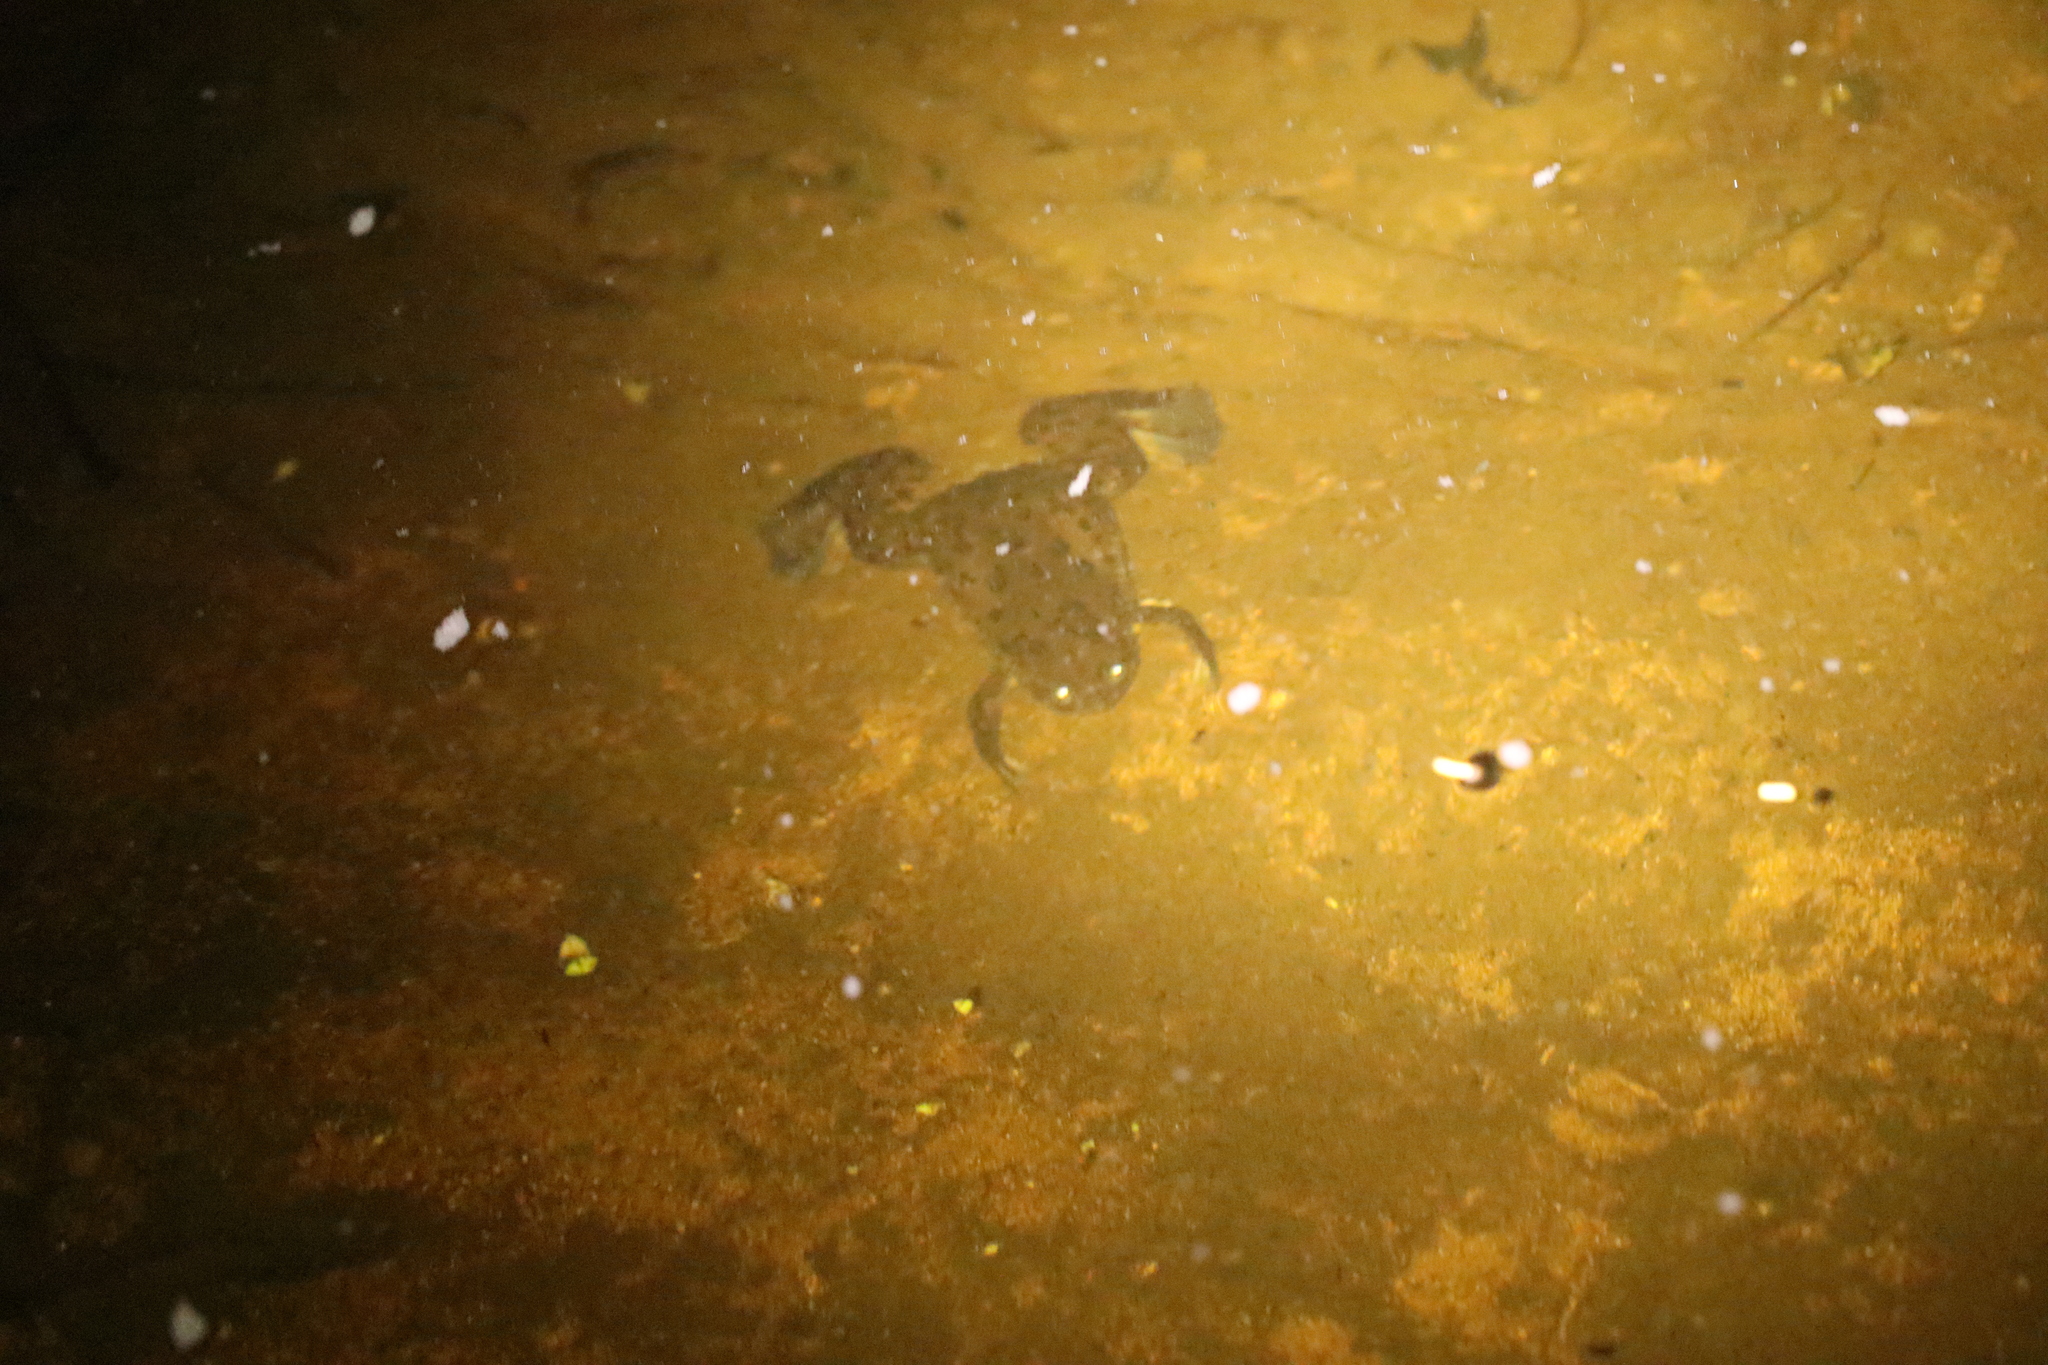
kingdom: Animalia
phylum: Chordata
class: Amphibia
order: Anura
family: Pipidae
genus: Xenopus
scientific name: Xenopus laevis
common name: African clawed frog
